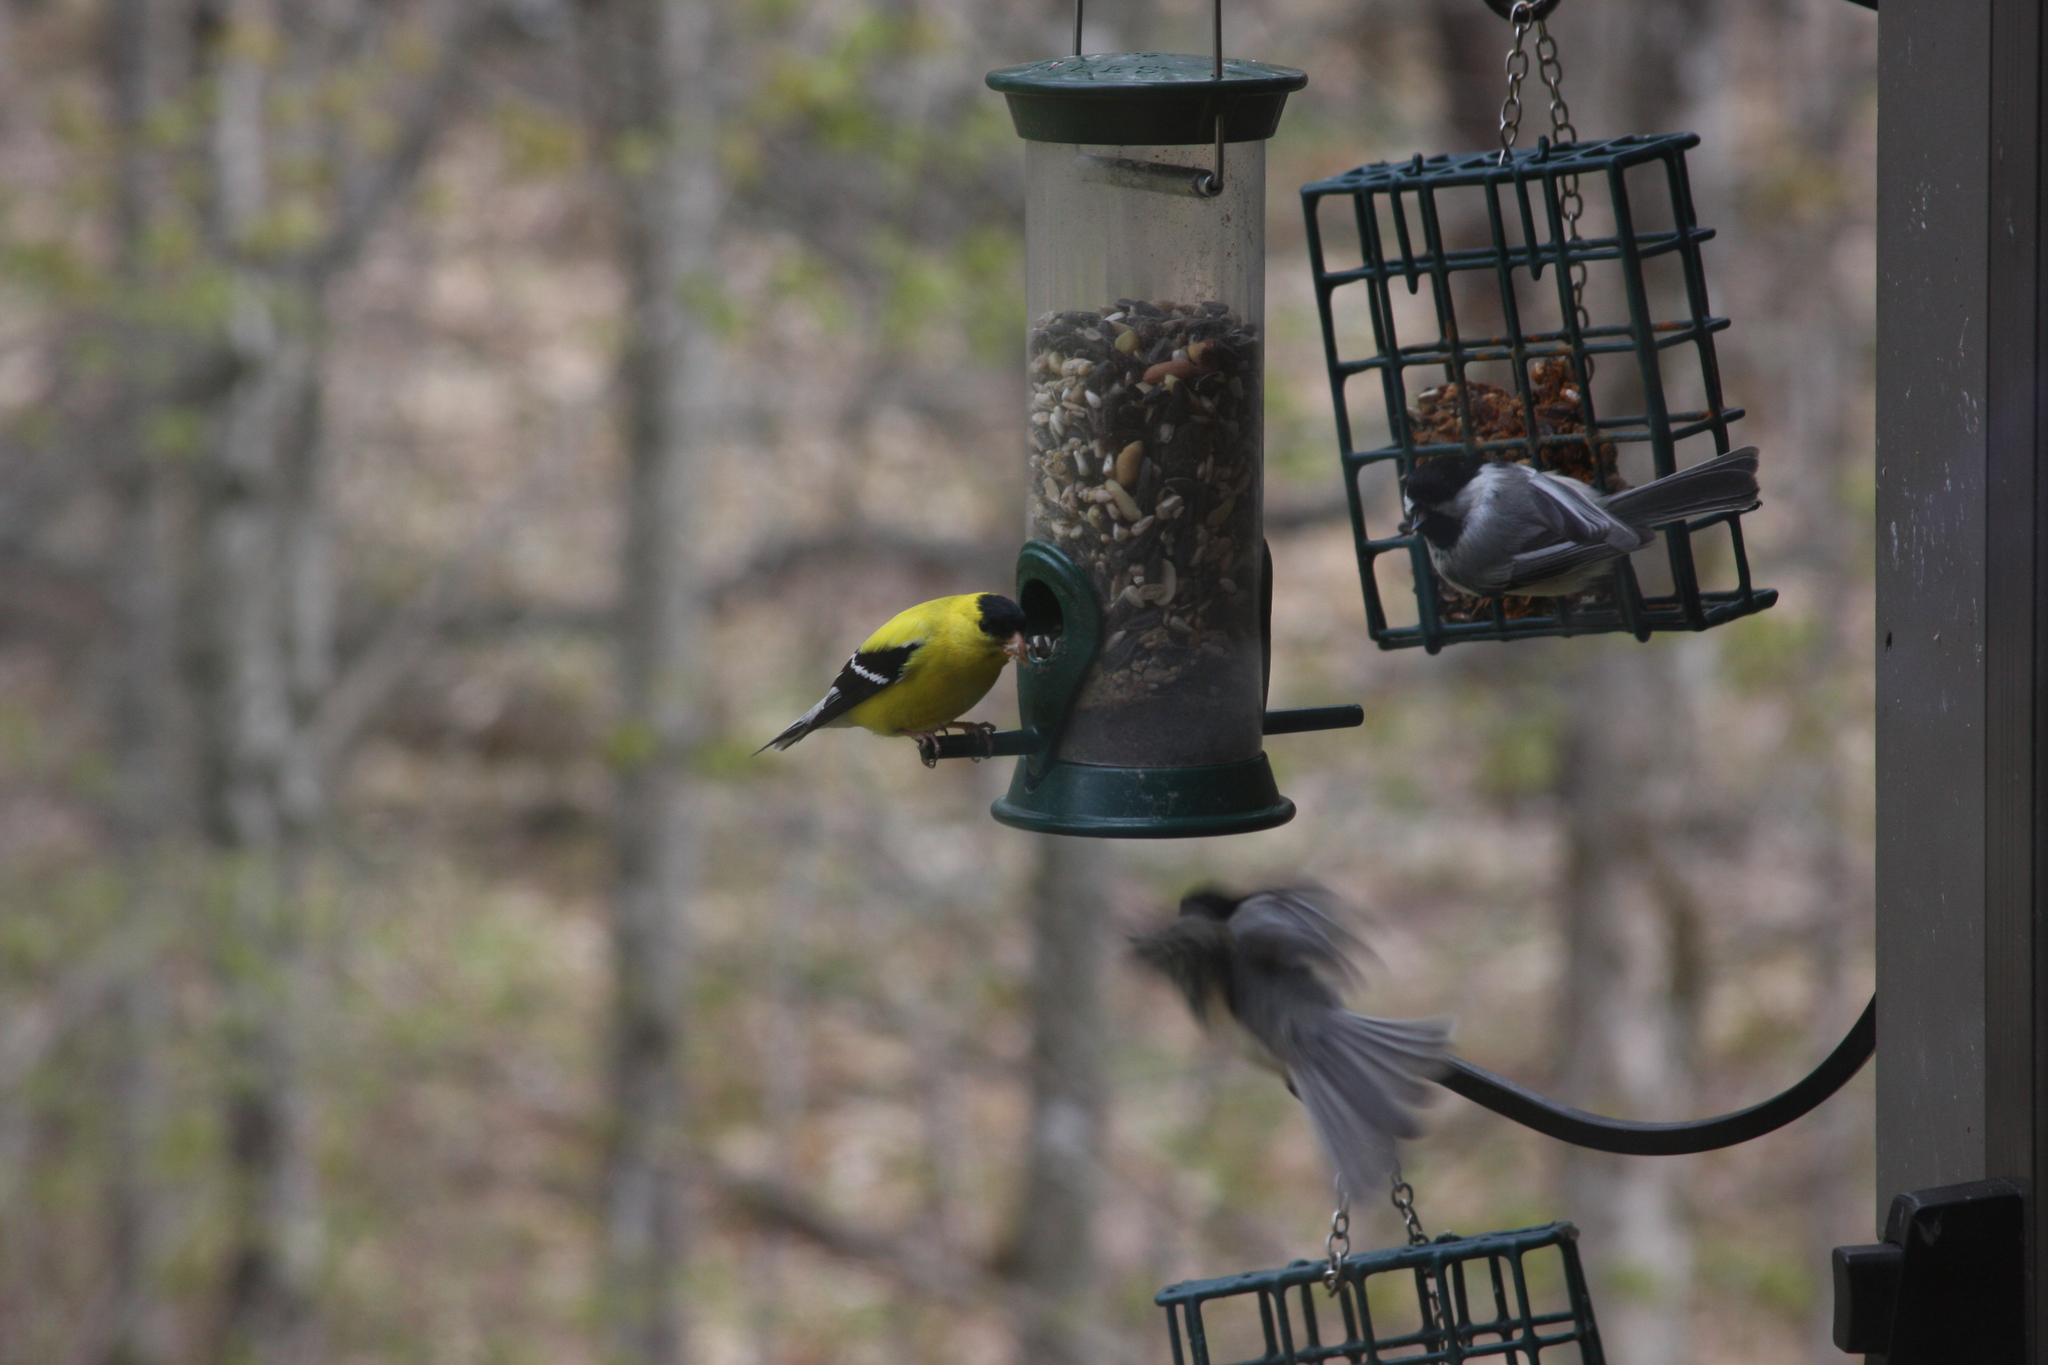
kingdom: Animalia
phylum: Chordata
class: Aves
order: Passeriformes
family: Fringillidae
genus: Spinus
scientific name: Spinus tristis
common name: American goldfinch
